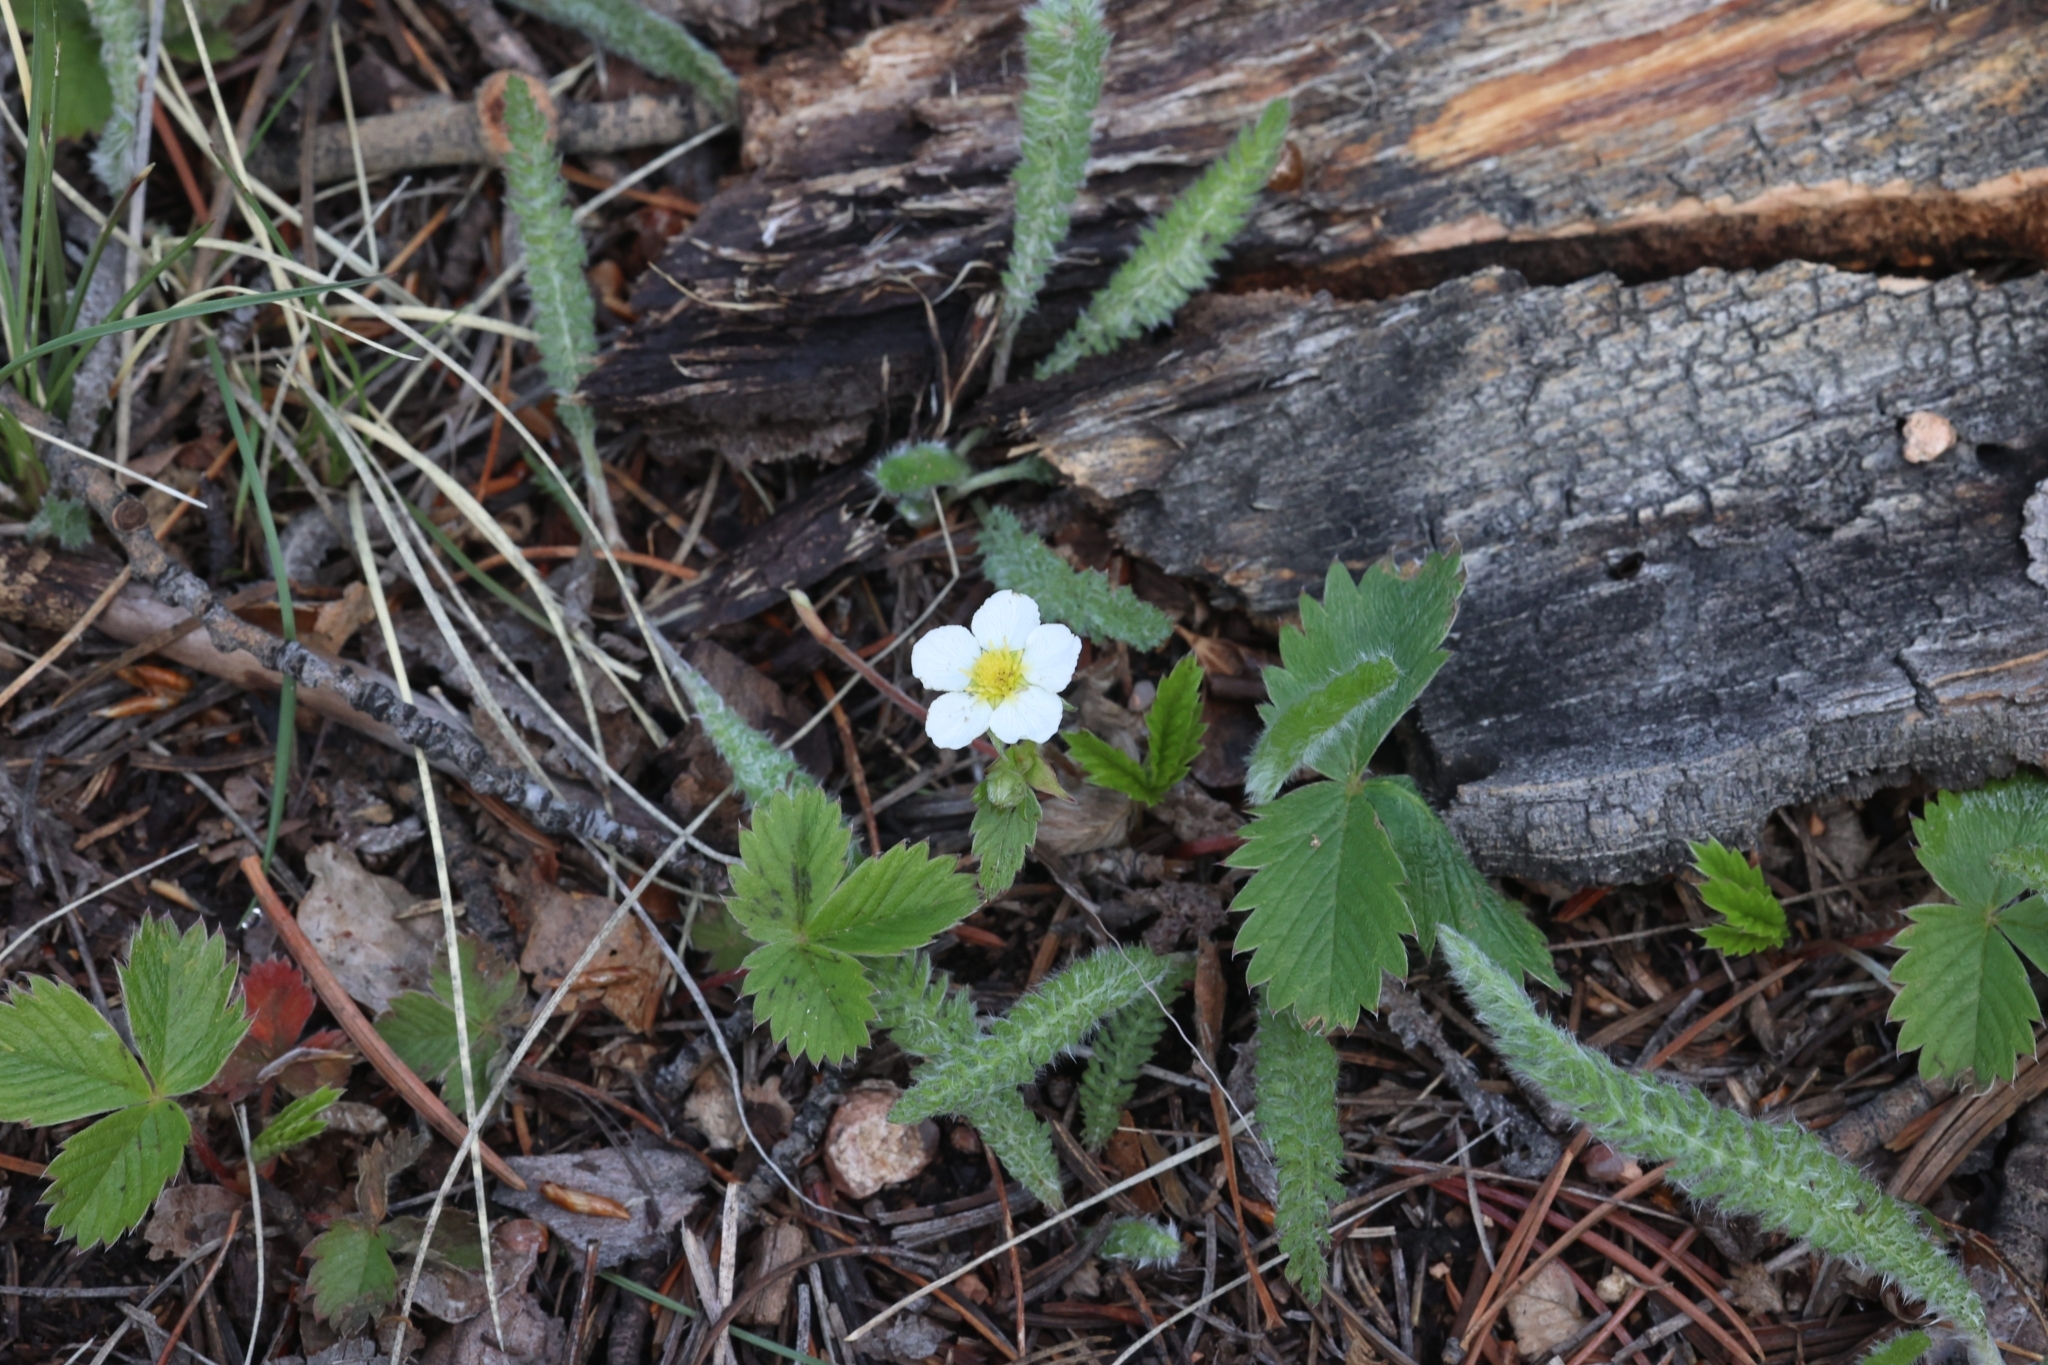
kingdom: Plantae
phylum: Tracheophyta
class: Magnoliopsida
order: Rosales
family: Rosaceae
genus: Fragaria
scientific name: Fragaria virginiana
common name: Thickleaved wild strawberry
